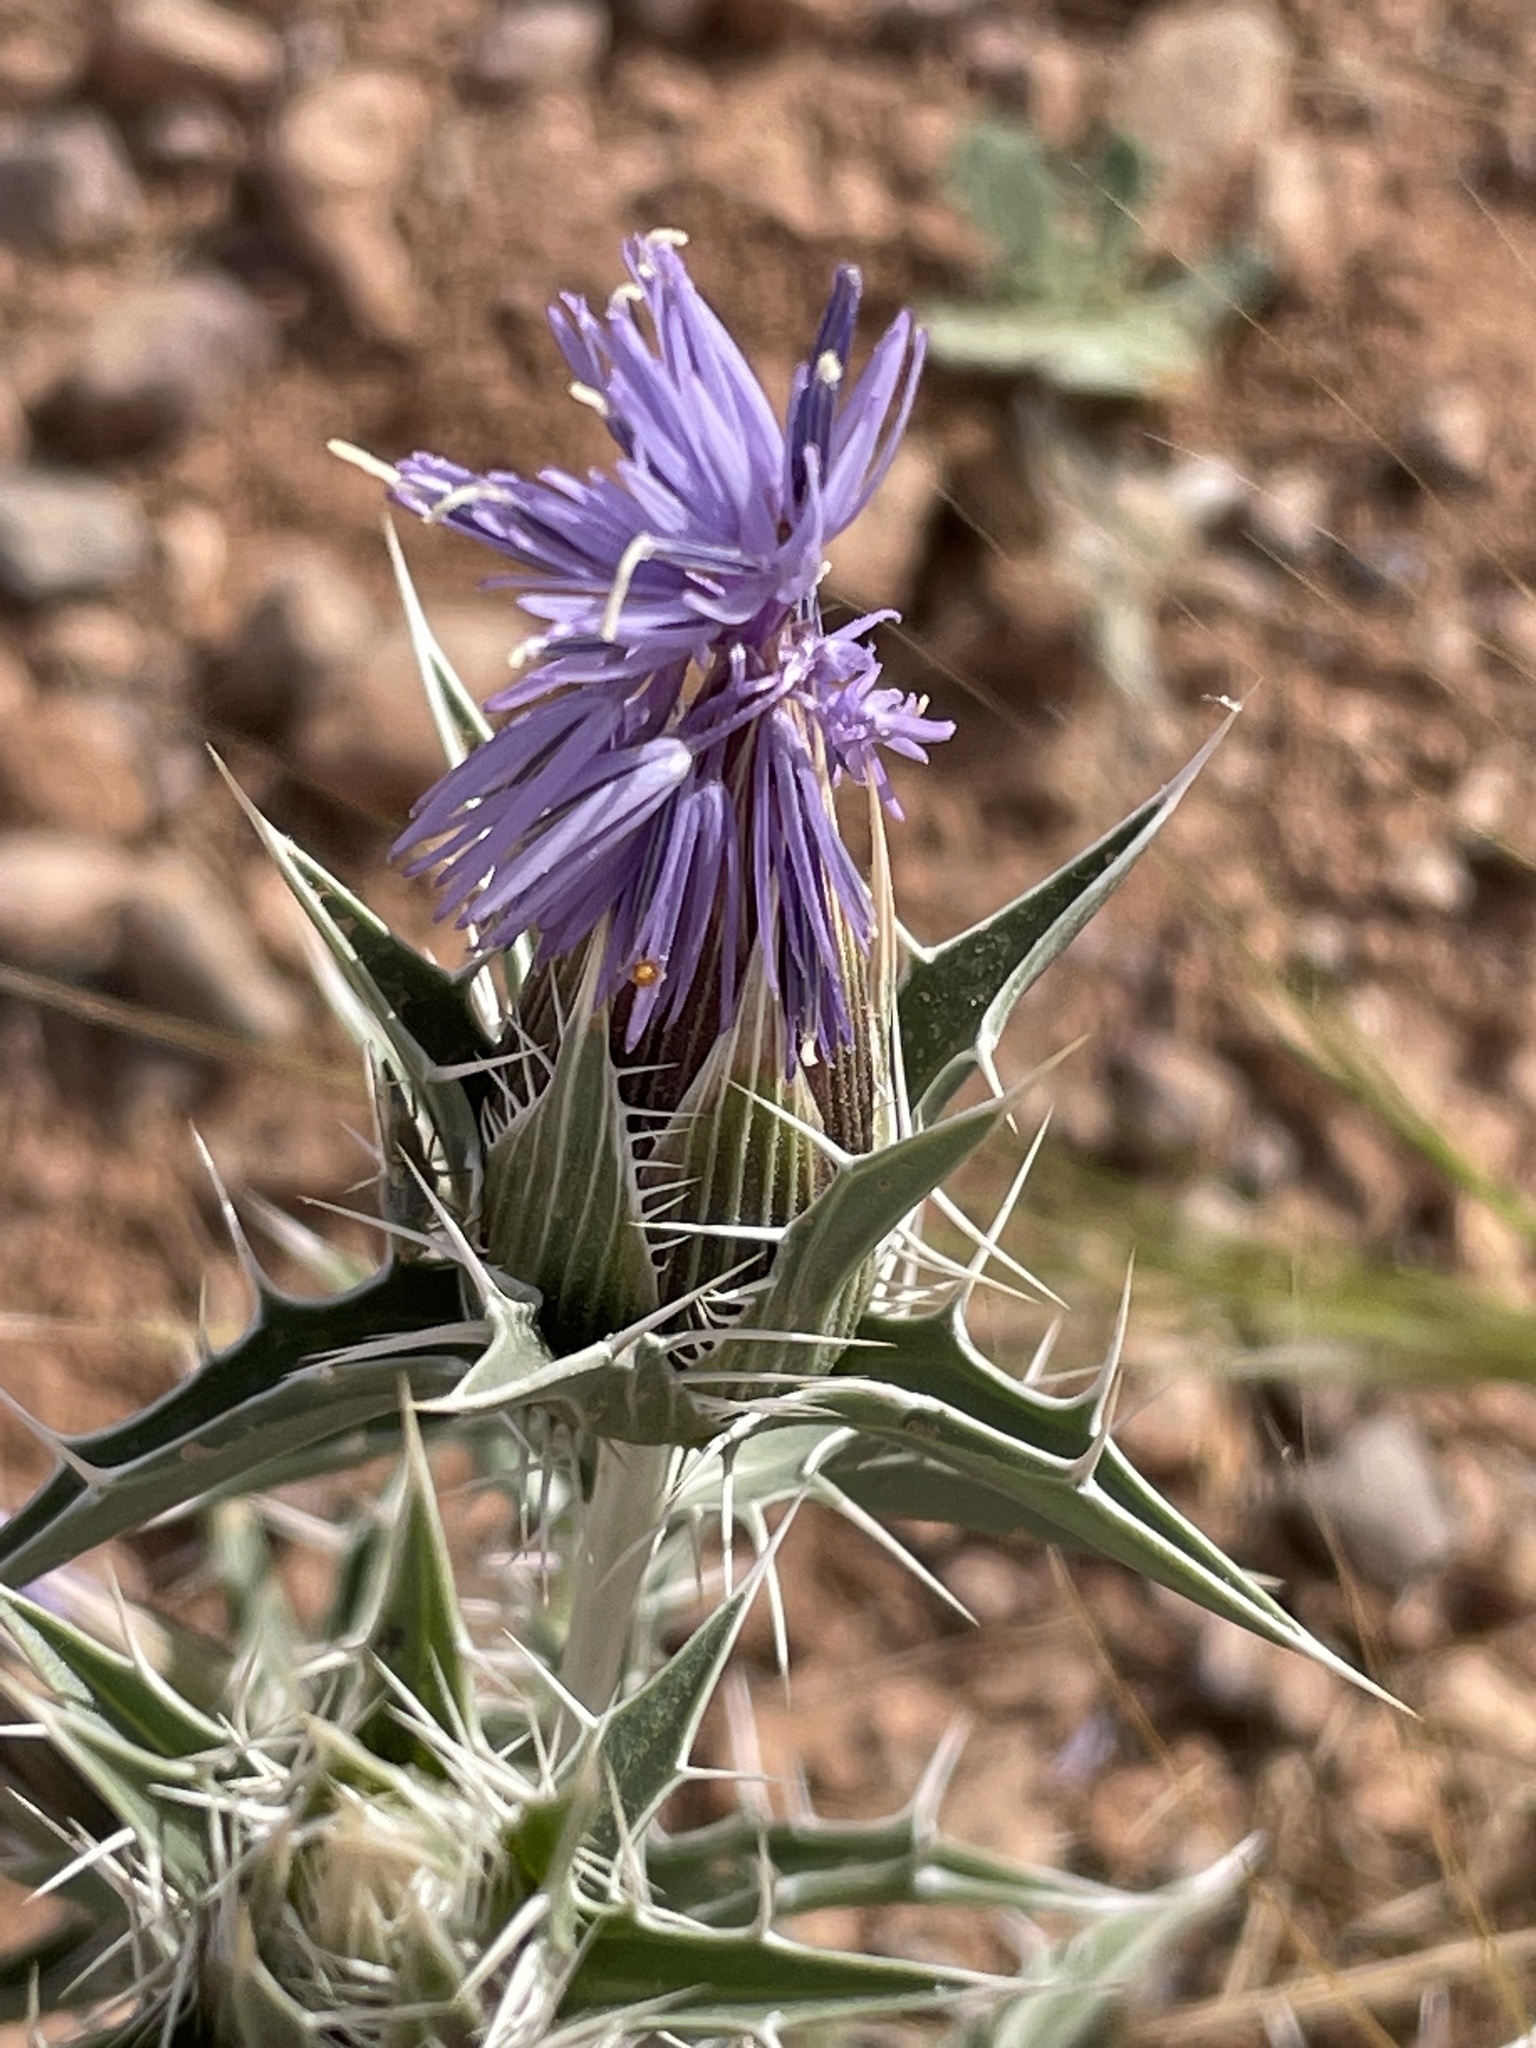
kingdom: Plantae
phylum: Tracheophyta
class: Magnoliopsida
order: Asterales
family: Asteraceae
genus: Carthamus
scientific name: Carthamus duvauxii
